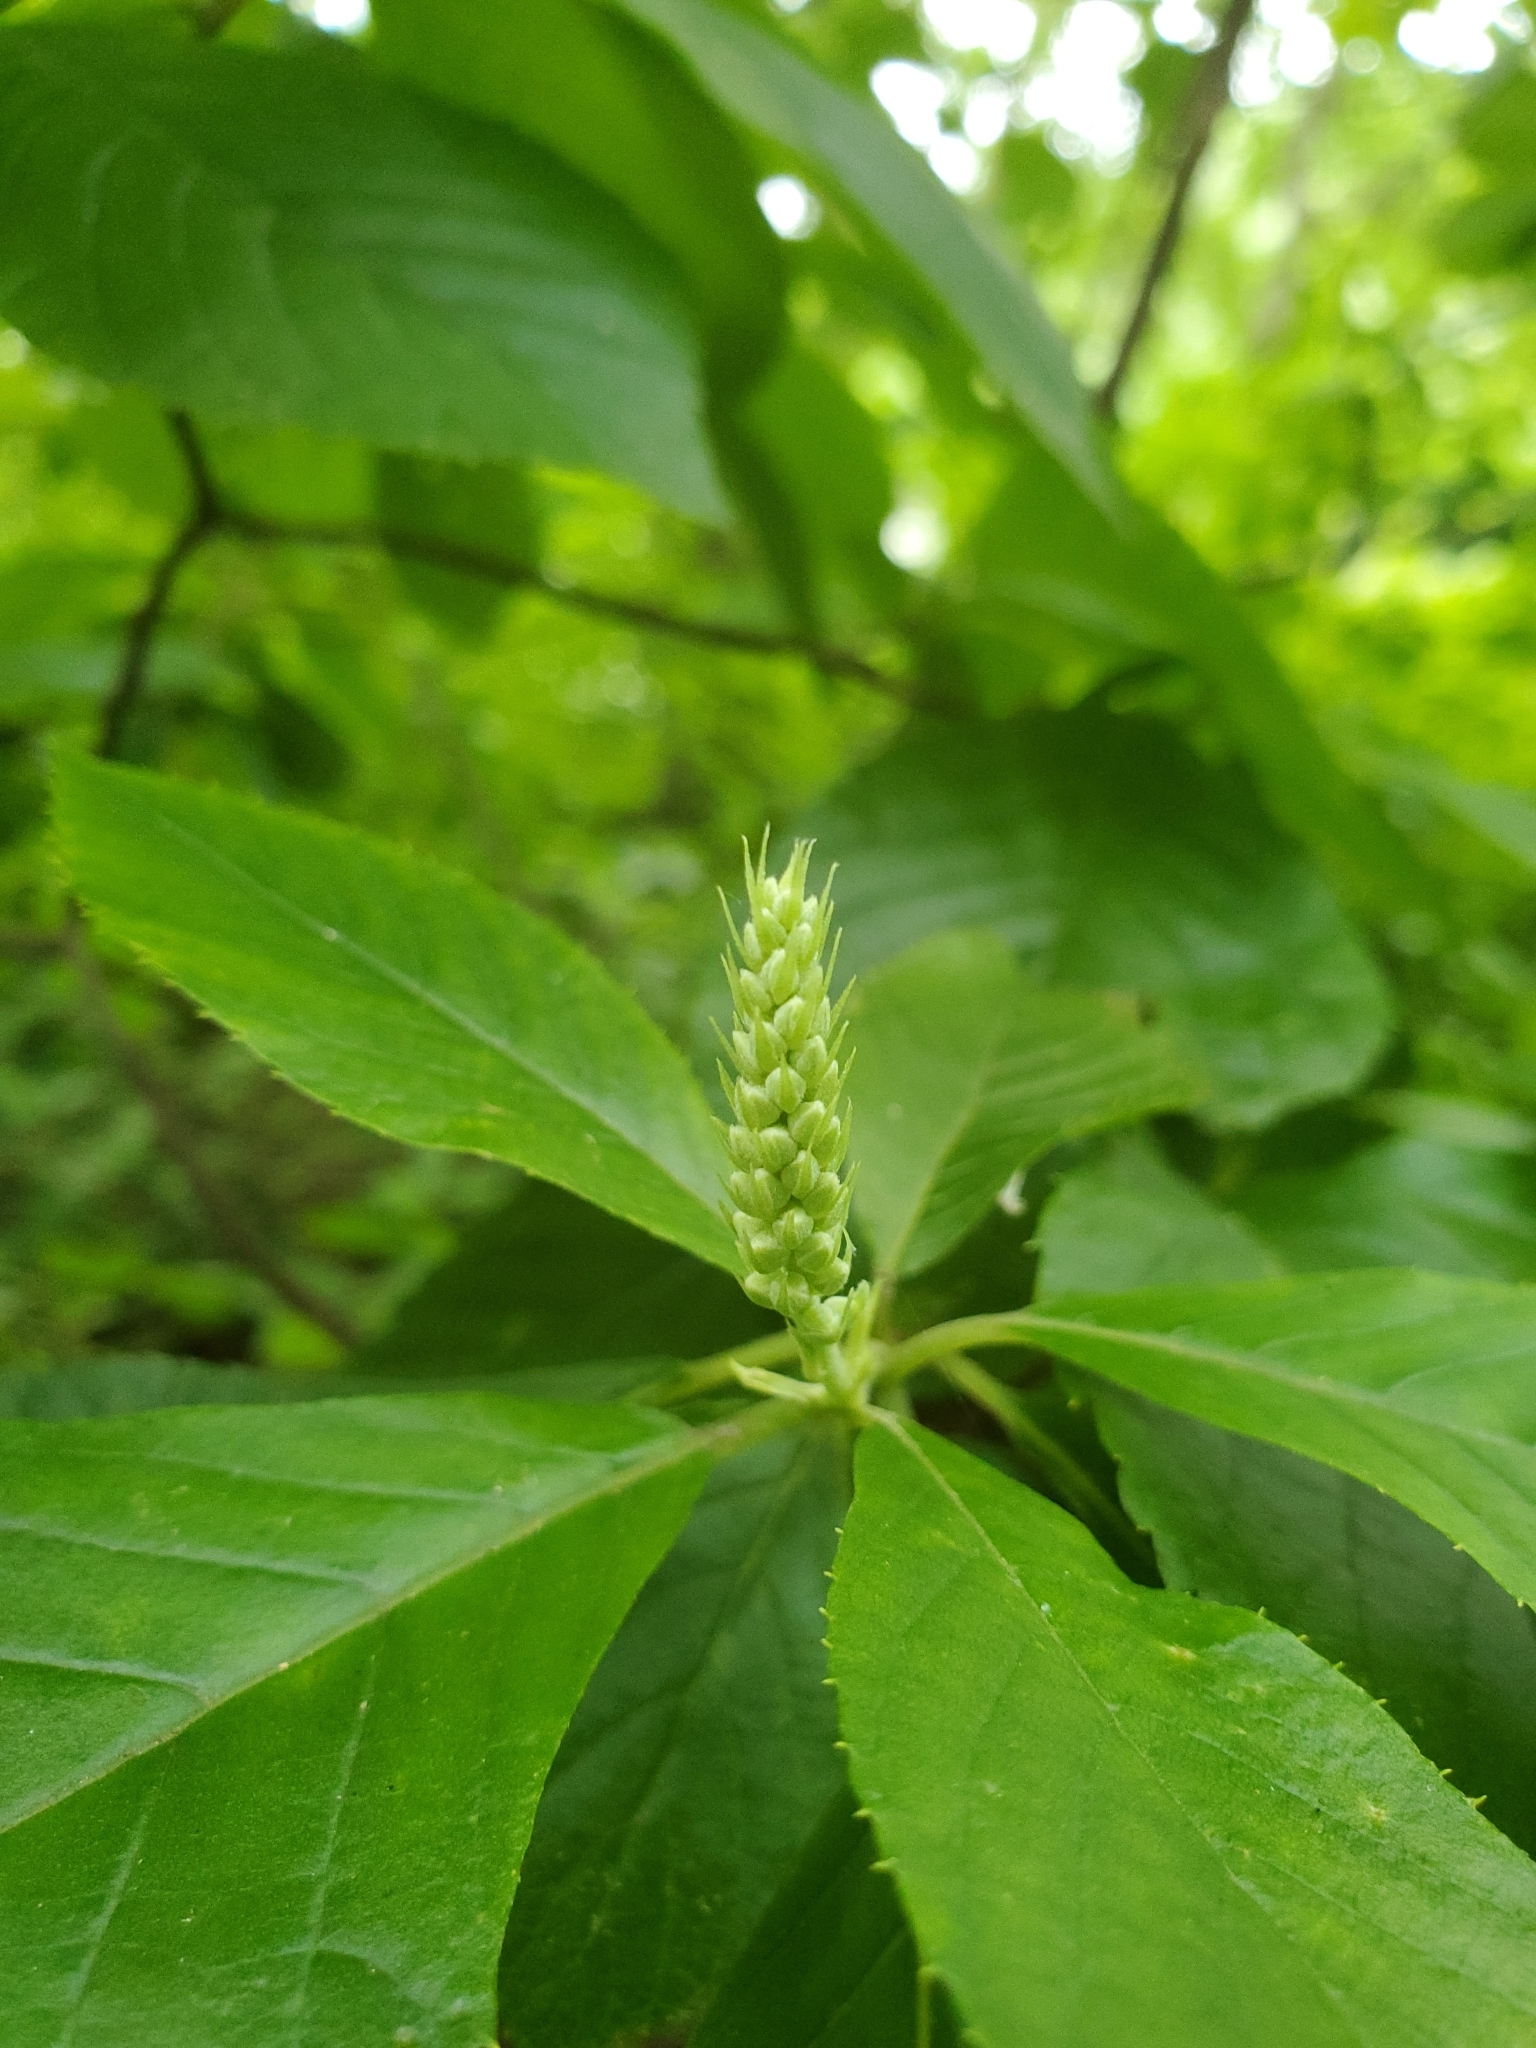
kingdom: Plantae
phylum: Tracheophyta
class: Magnoliopsida
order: Ericales
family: Clethraceae
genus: Clethra
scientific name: Clethra alnifolia
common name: Sweet pepperbush
